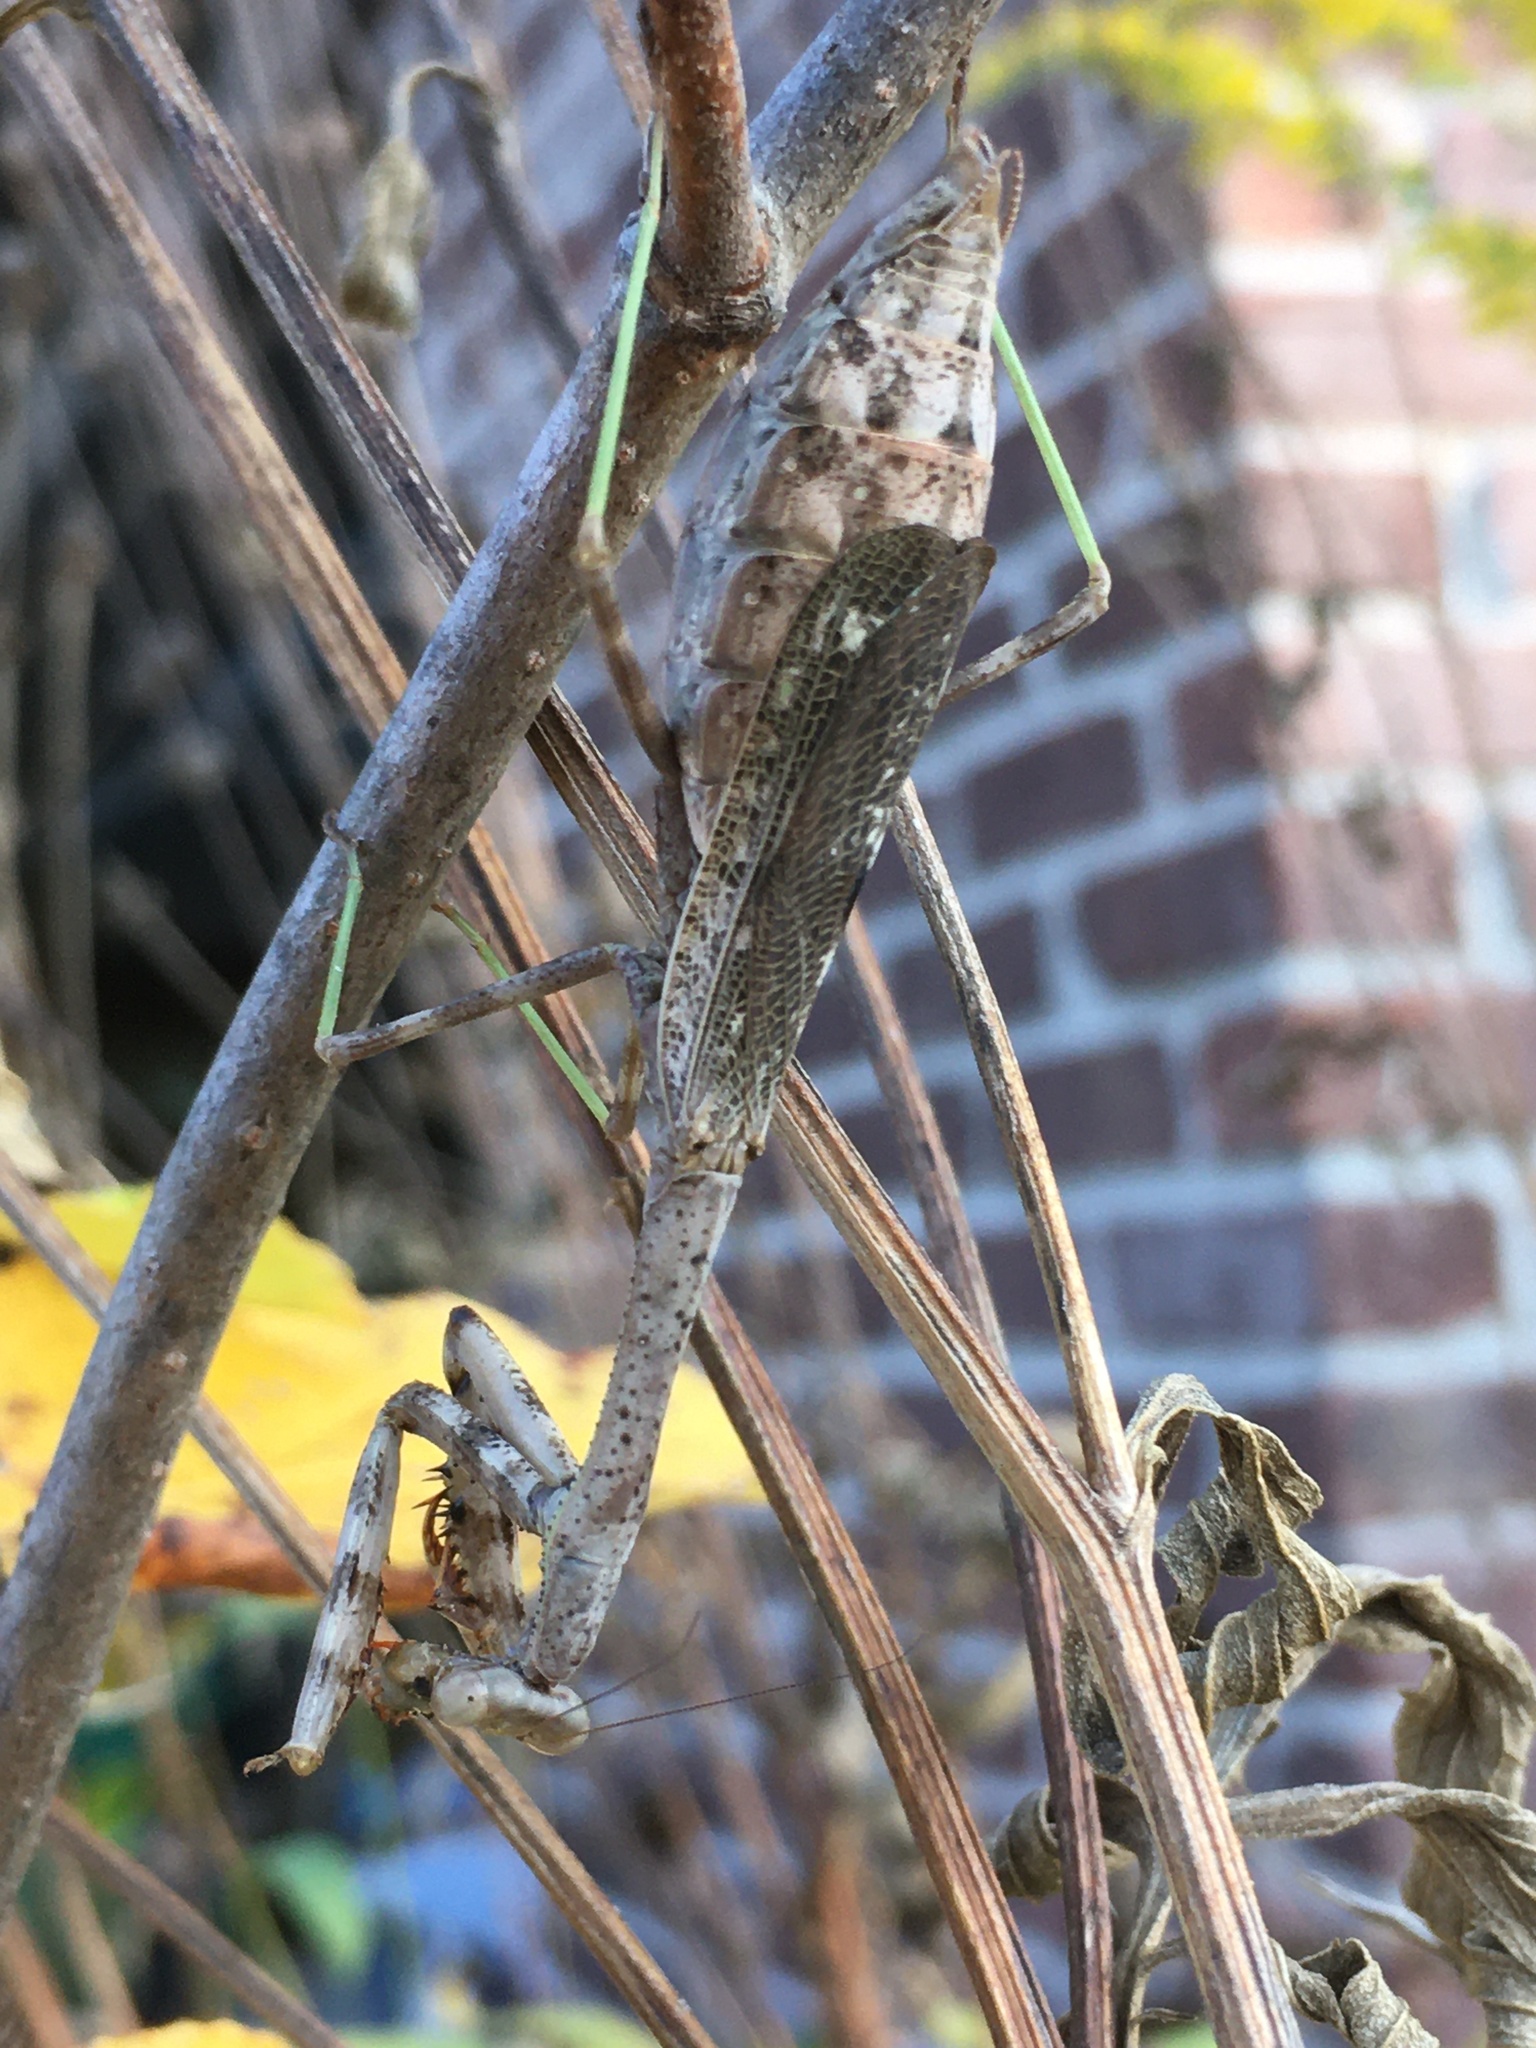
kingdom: Animalia
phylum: Arthropoda
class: Insecta
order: Mantodea
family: Mantidae
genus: Stagmomantis
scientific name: Stagmomantis carolina
